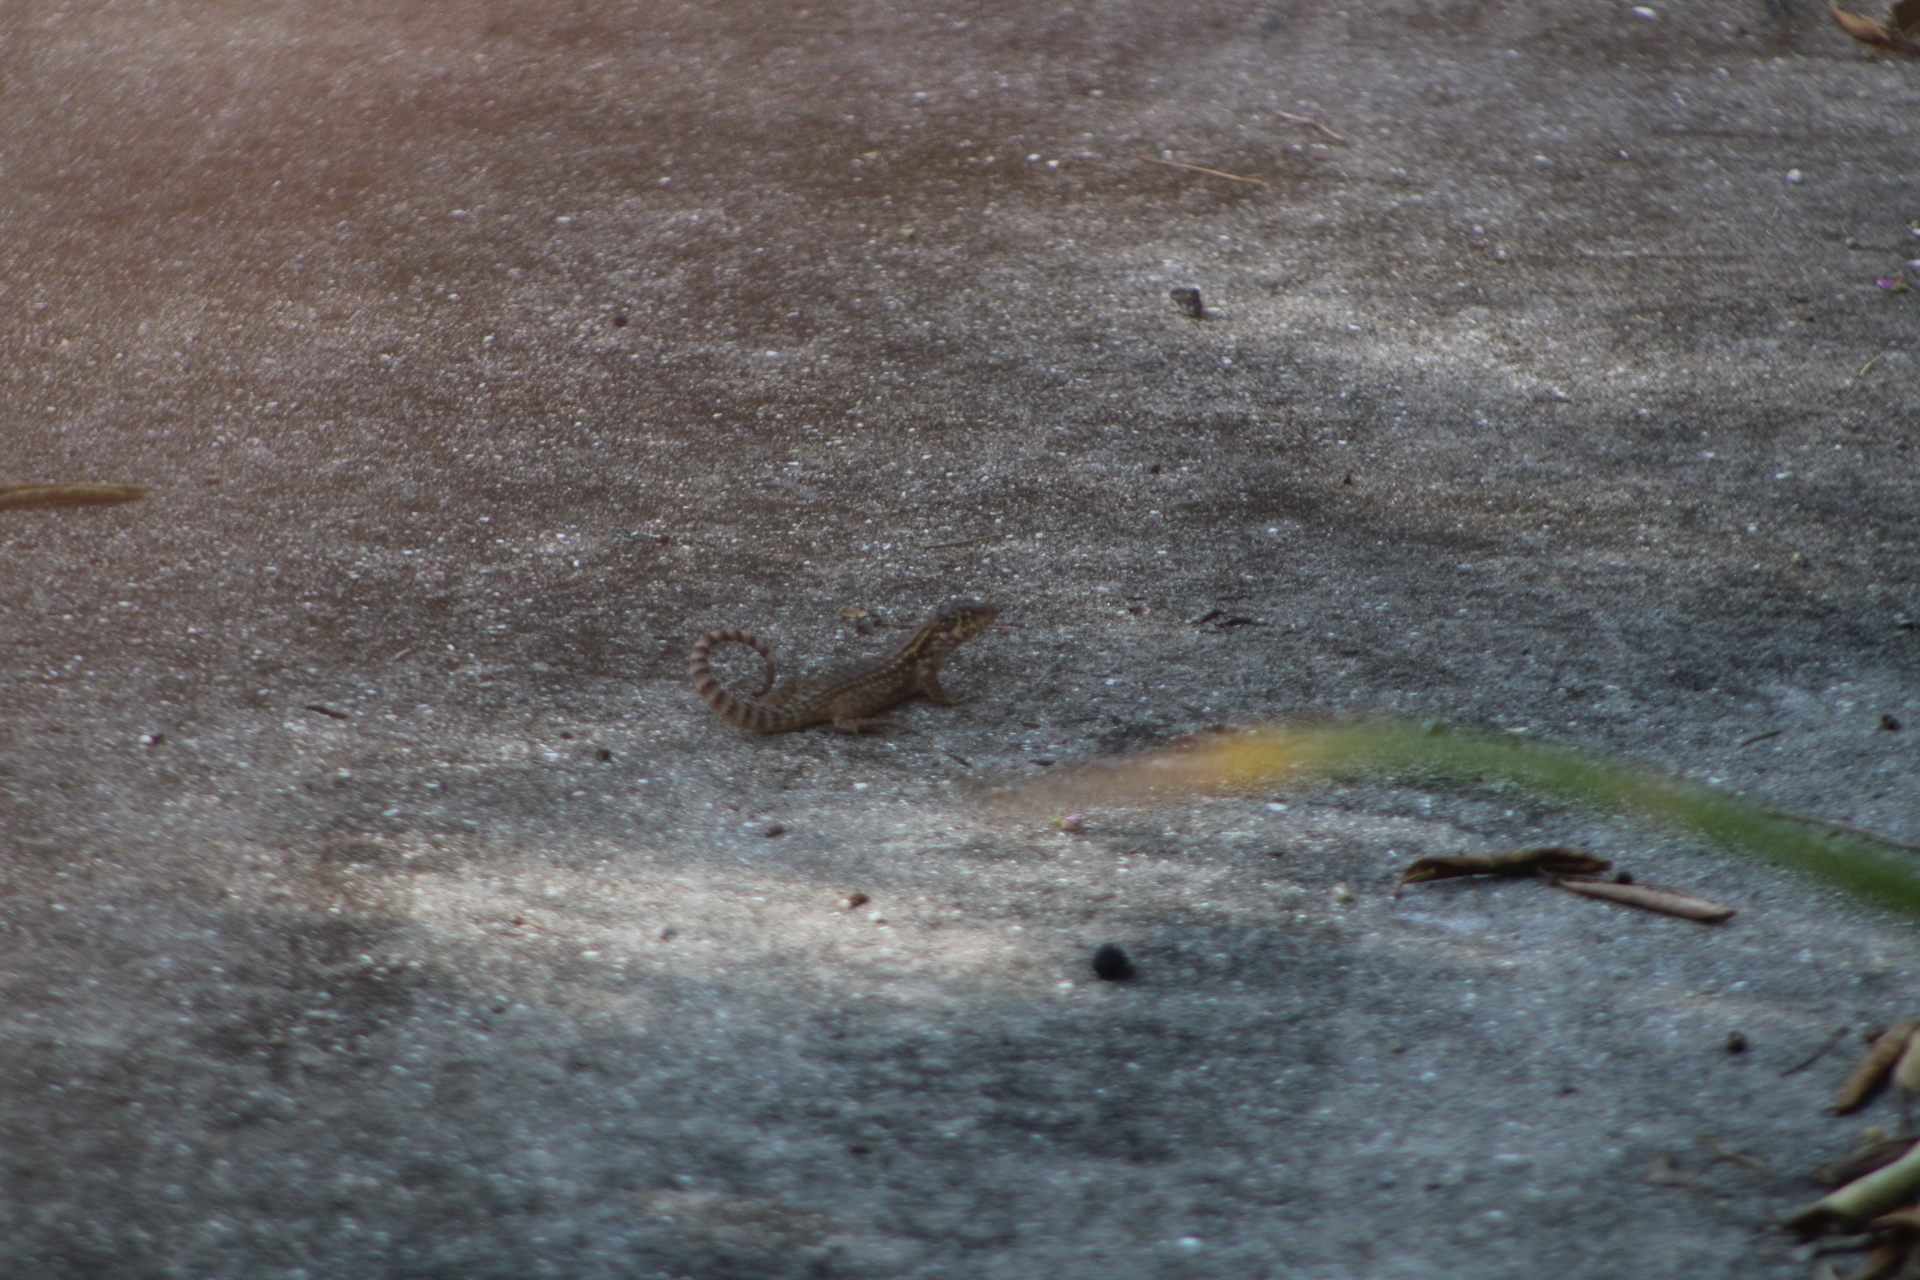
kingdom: Animalia
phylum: Chordata
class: Squamata
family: Leiocephalidae
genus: Leiocephalus
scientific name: Leiocephalus carinatus
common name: Northern curly-tailed lizard
